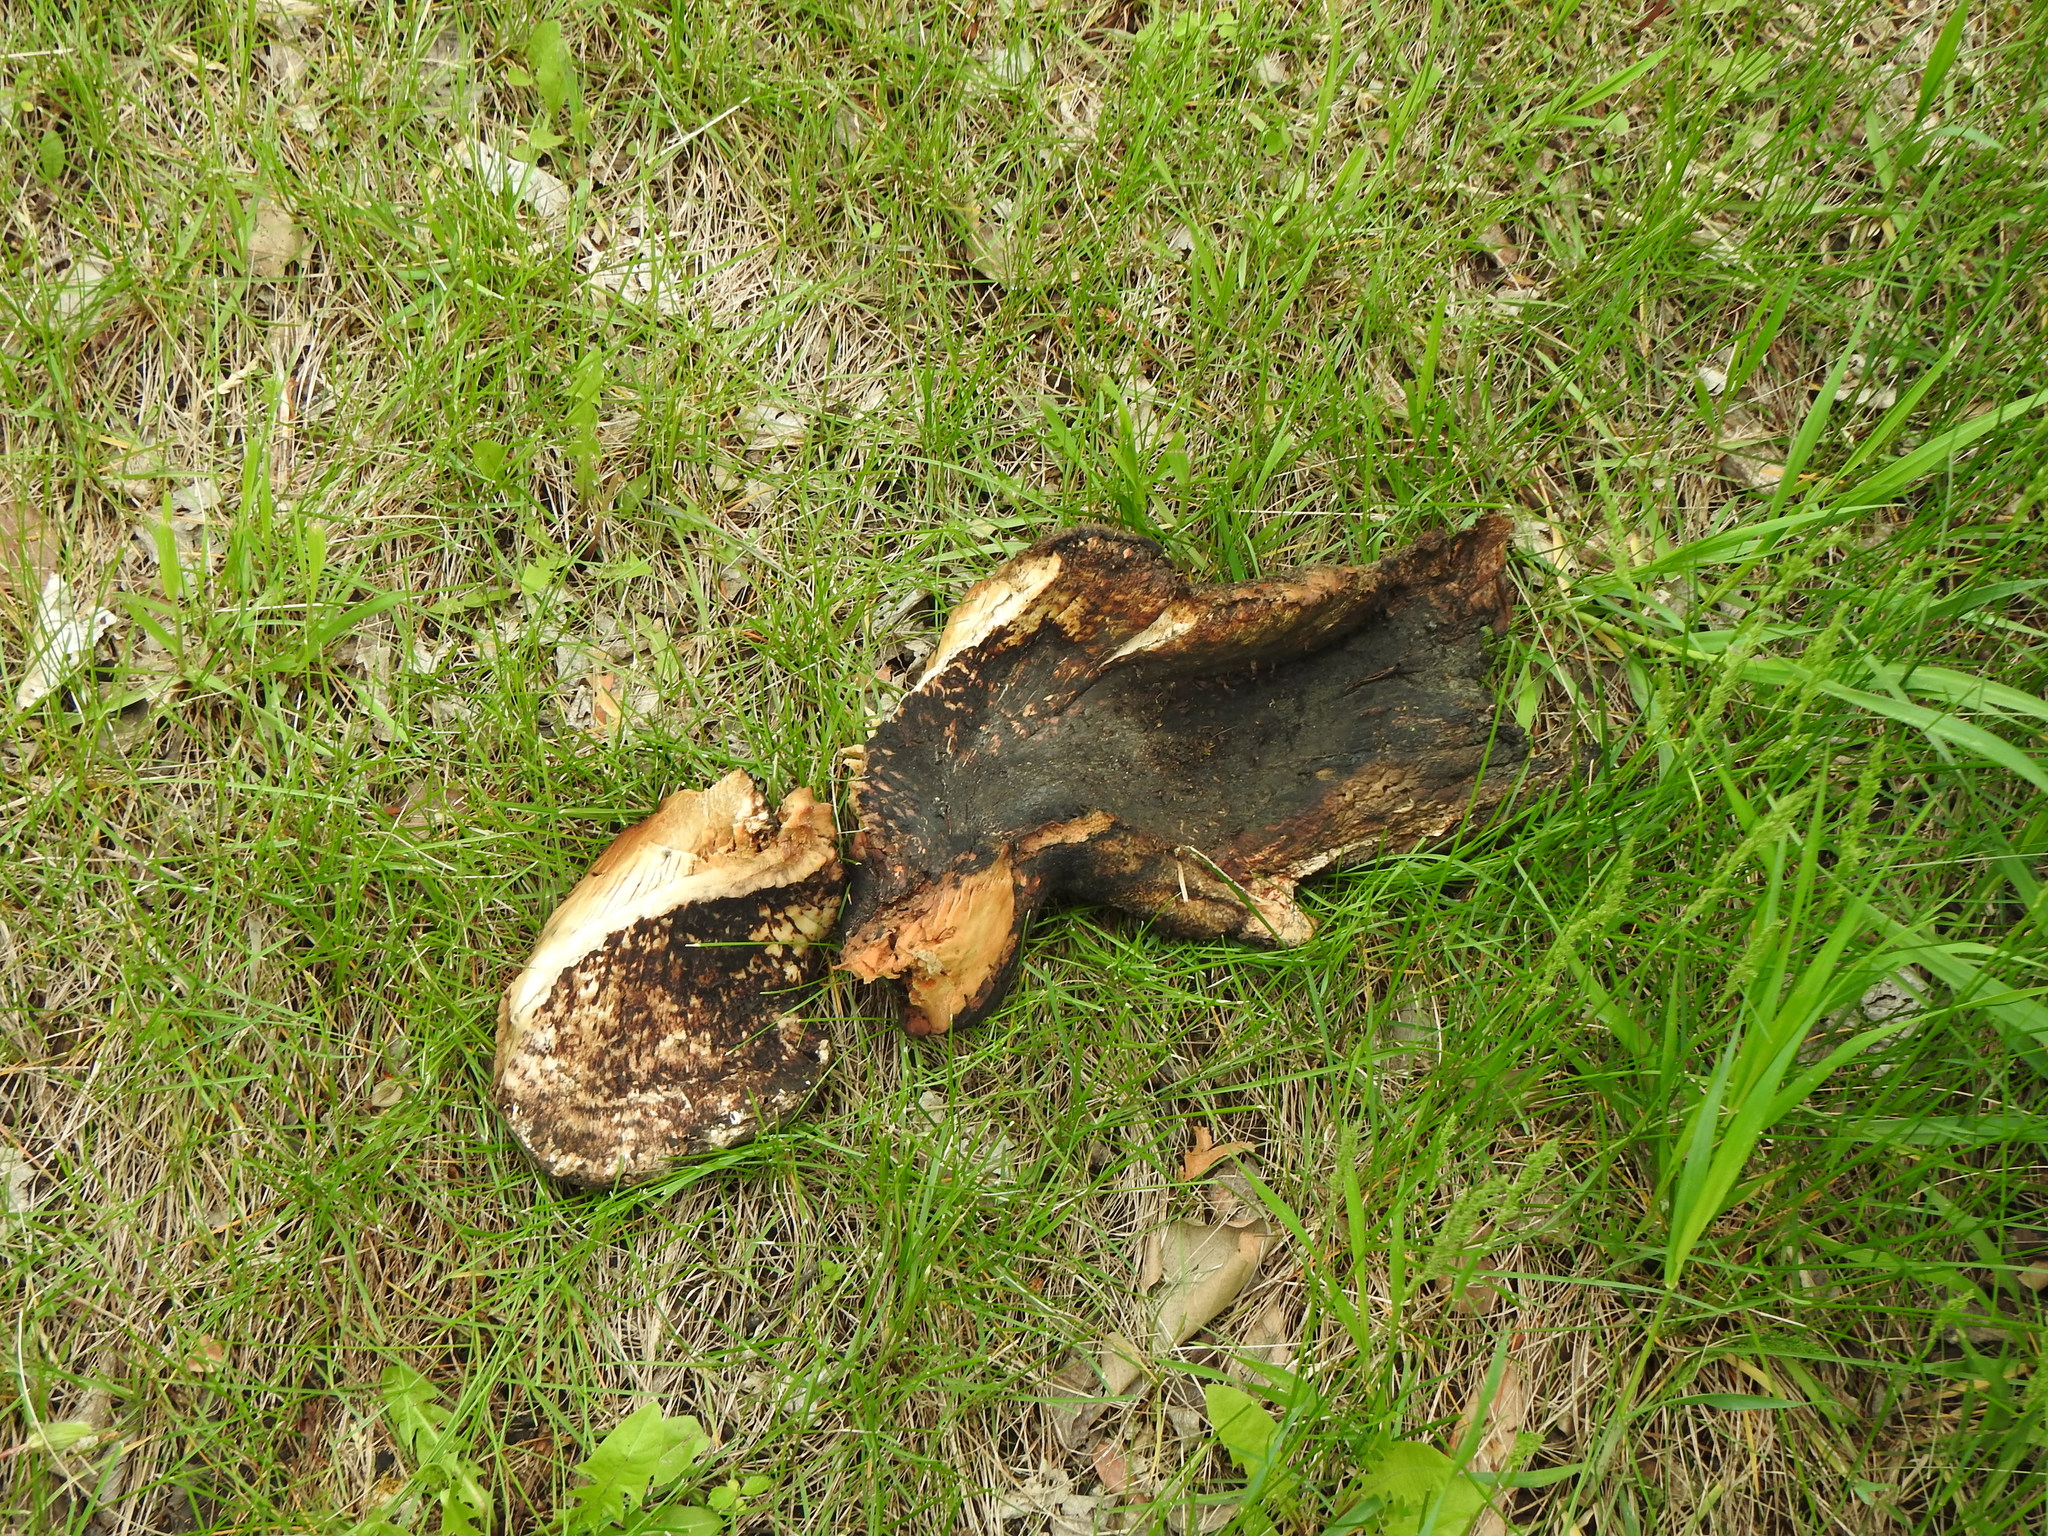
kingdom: Fungi
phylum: Basidiomycota
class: Agaricomycetes
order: Polyporales
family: Polyporaceae
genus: Cerioporus
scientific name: Cerioporus squamosus
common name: Dryad's saddle
